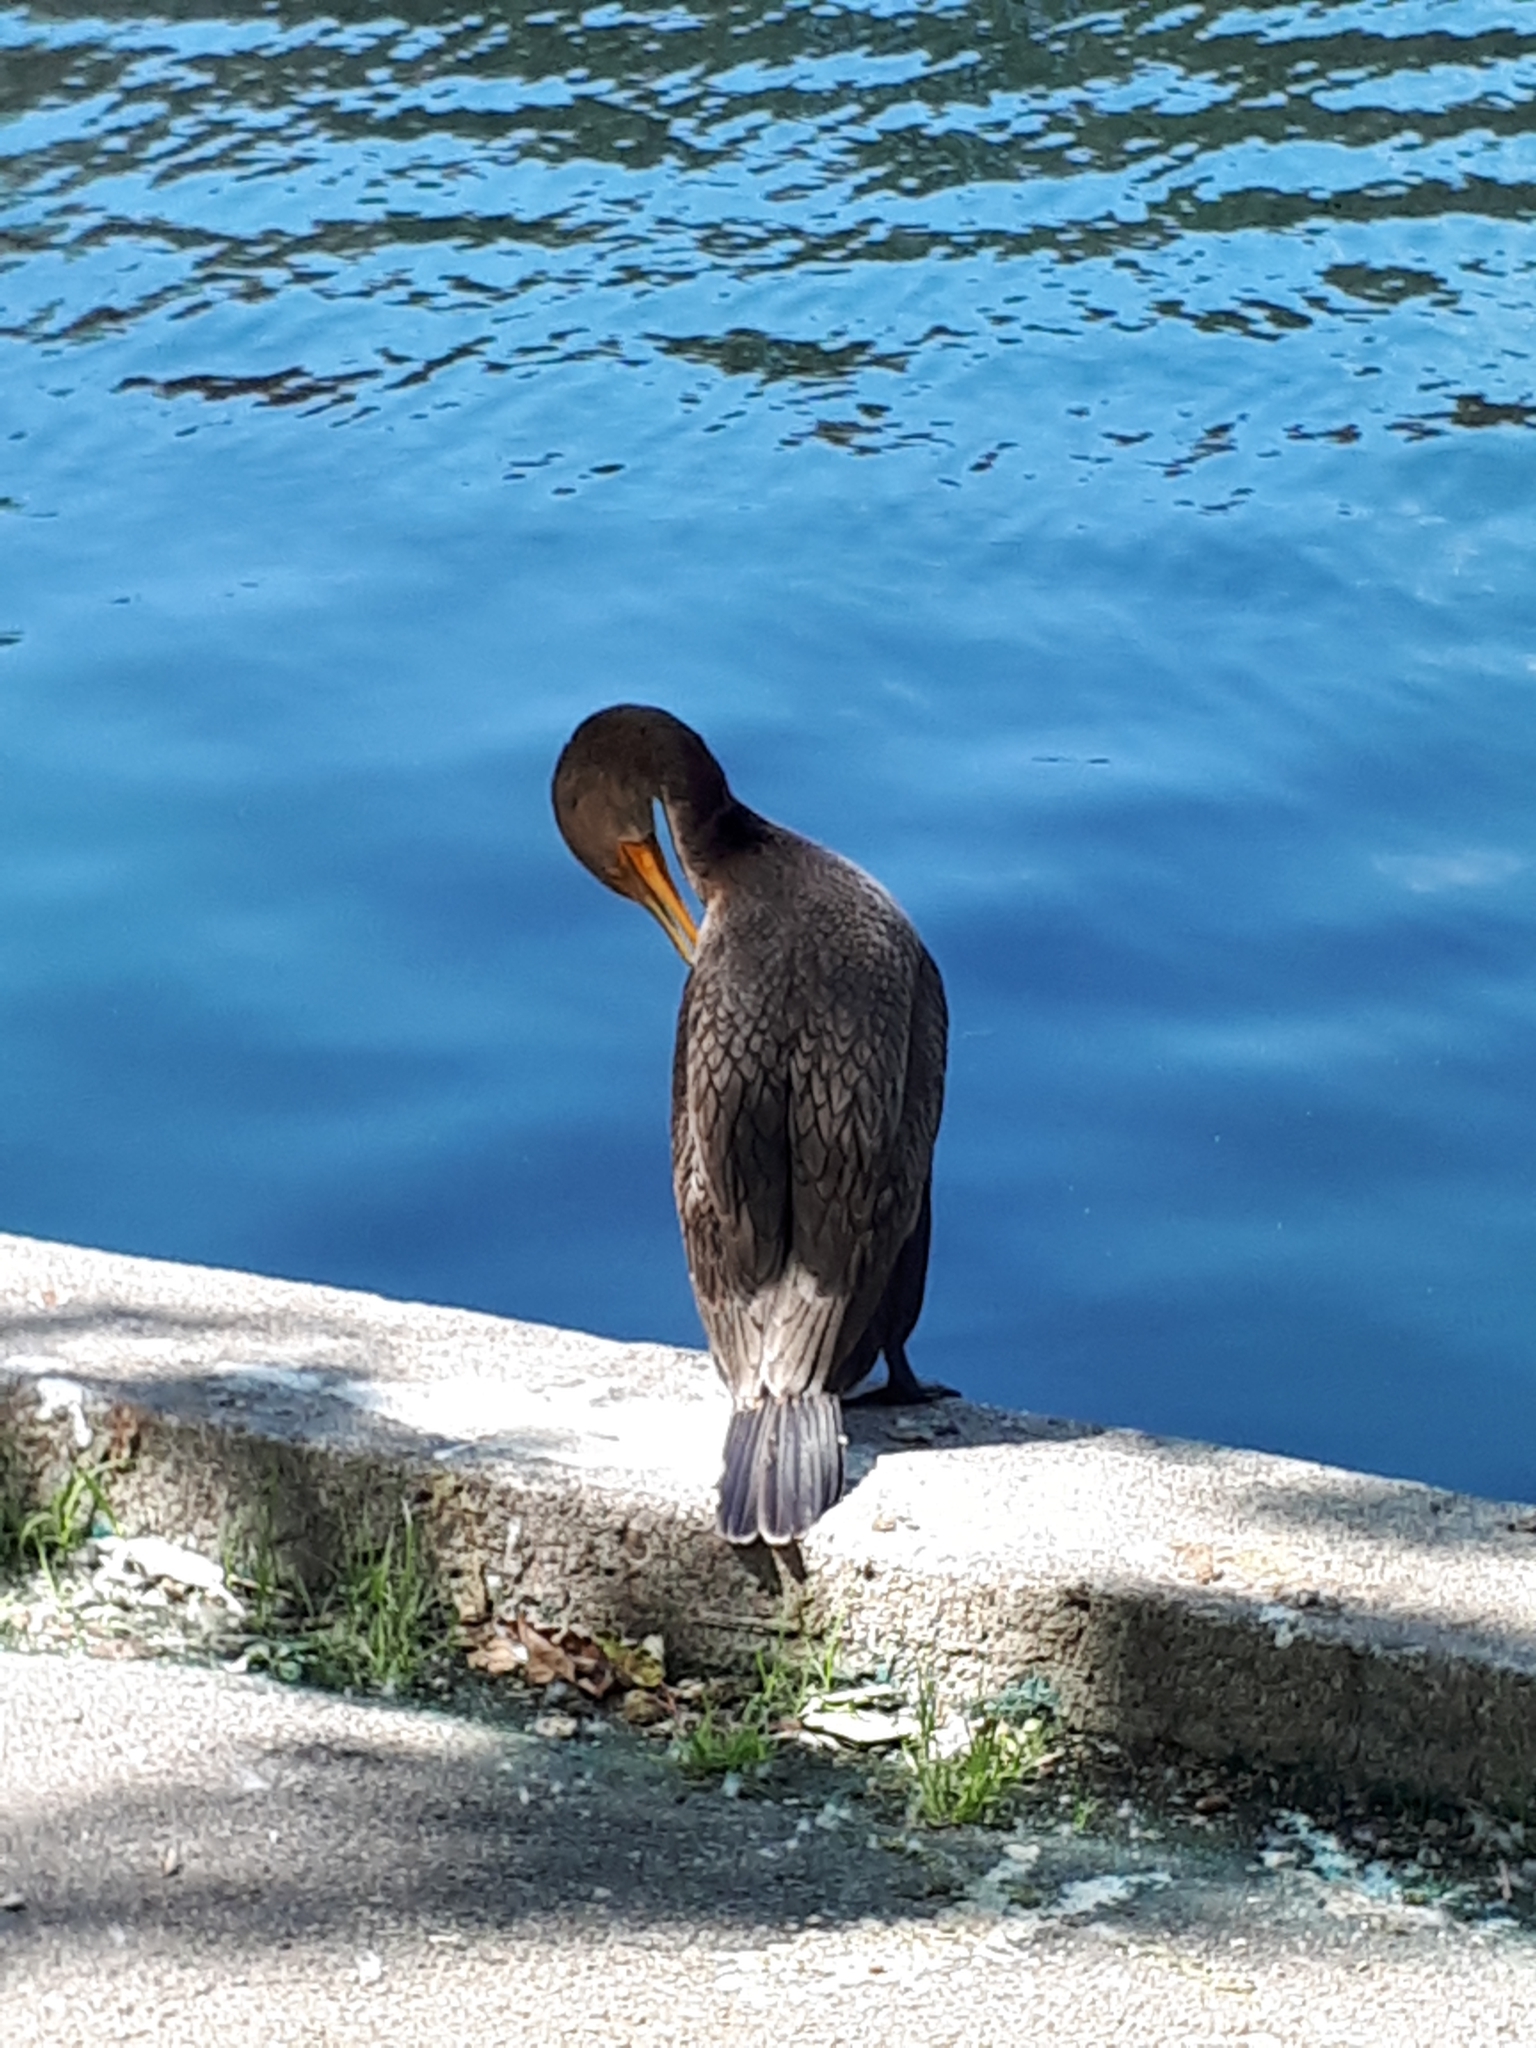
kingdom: Animalia
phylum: Chordata
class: Aves
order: Suliformes
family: Phalacrocoracidae
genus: Phalacrocorax
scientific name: Phalacrocorax auritus
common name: Double-crested cormorant
